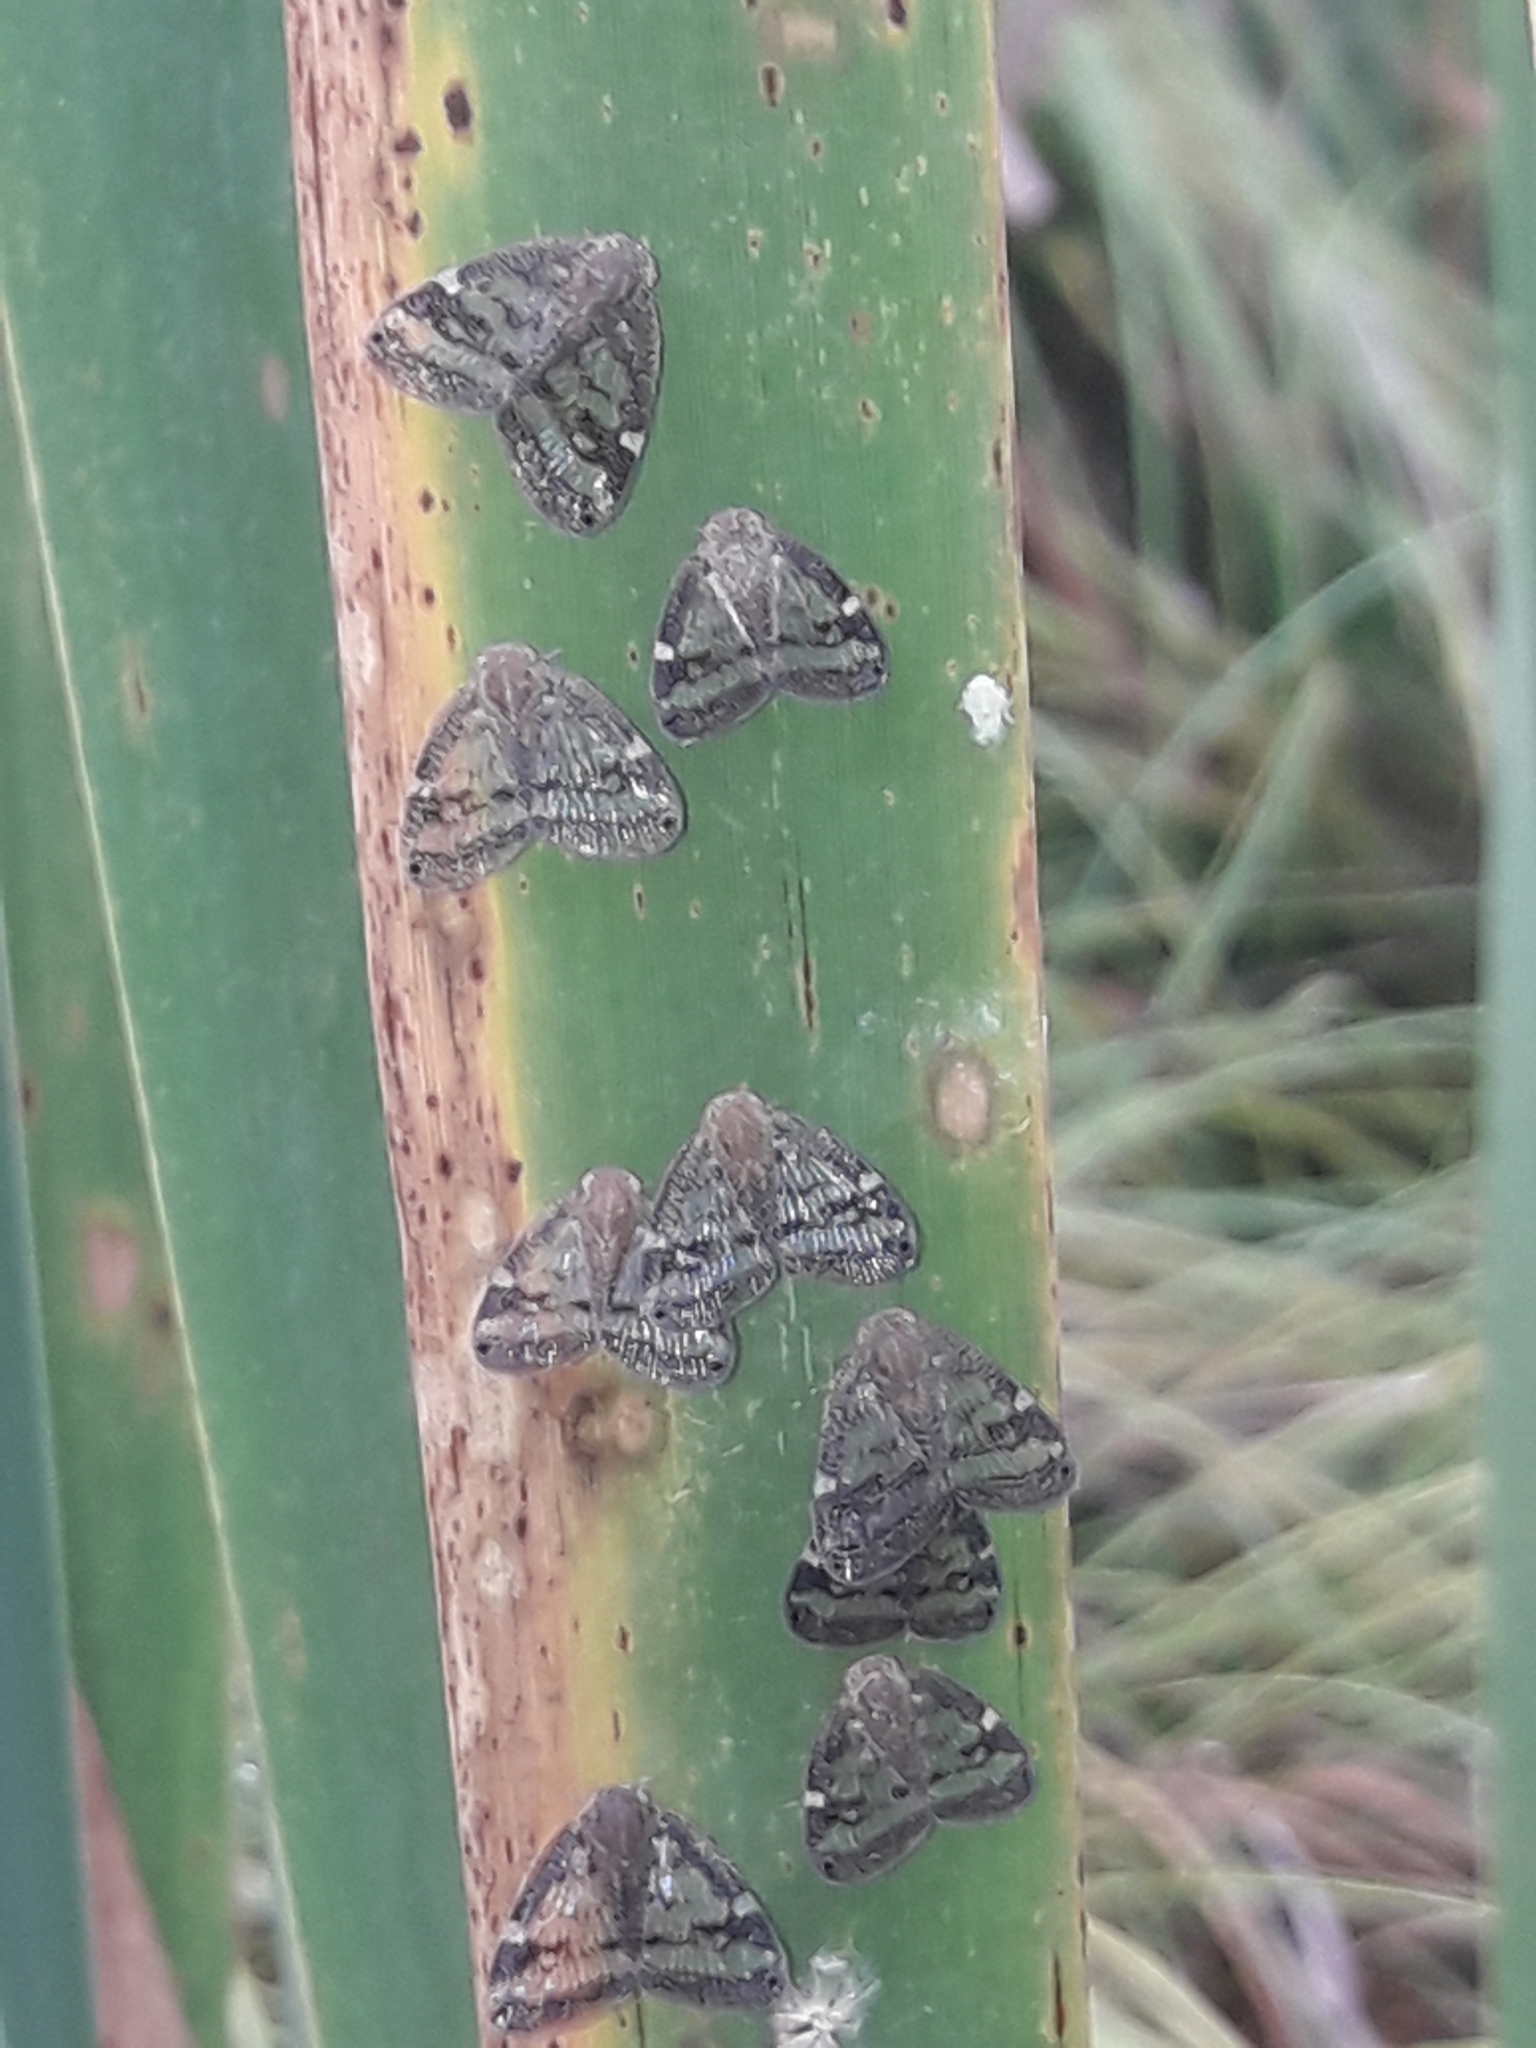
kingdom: Animalia
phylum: Arthropoda
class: Insecta
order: Hemiptera
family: Ricaniidae
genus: Scolypopa
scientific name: Scolypopa australis
